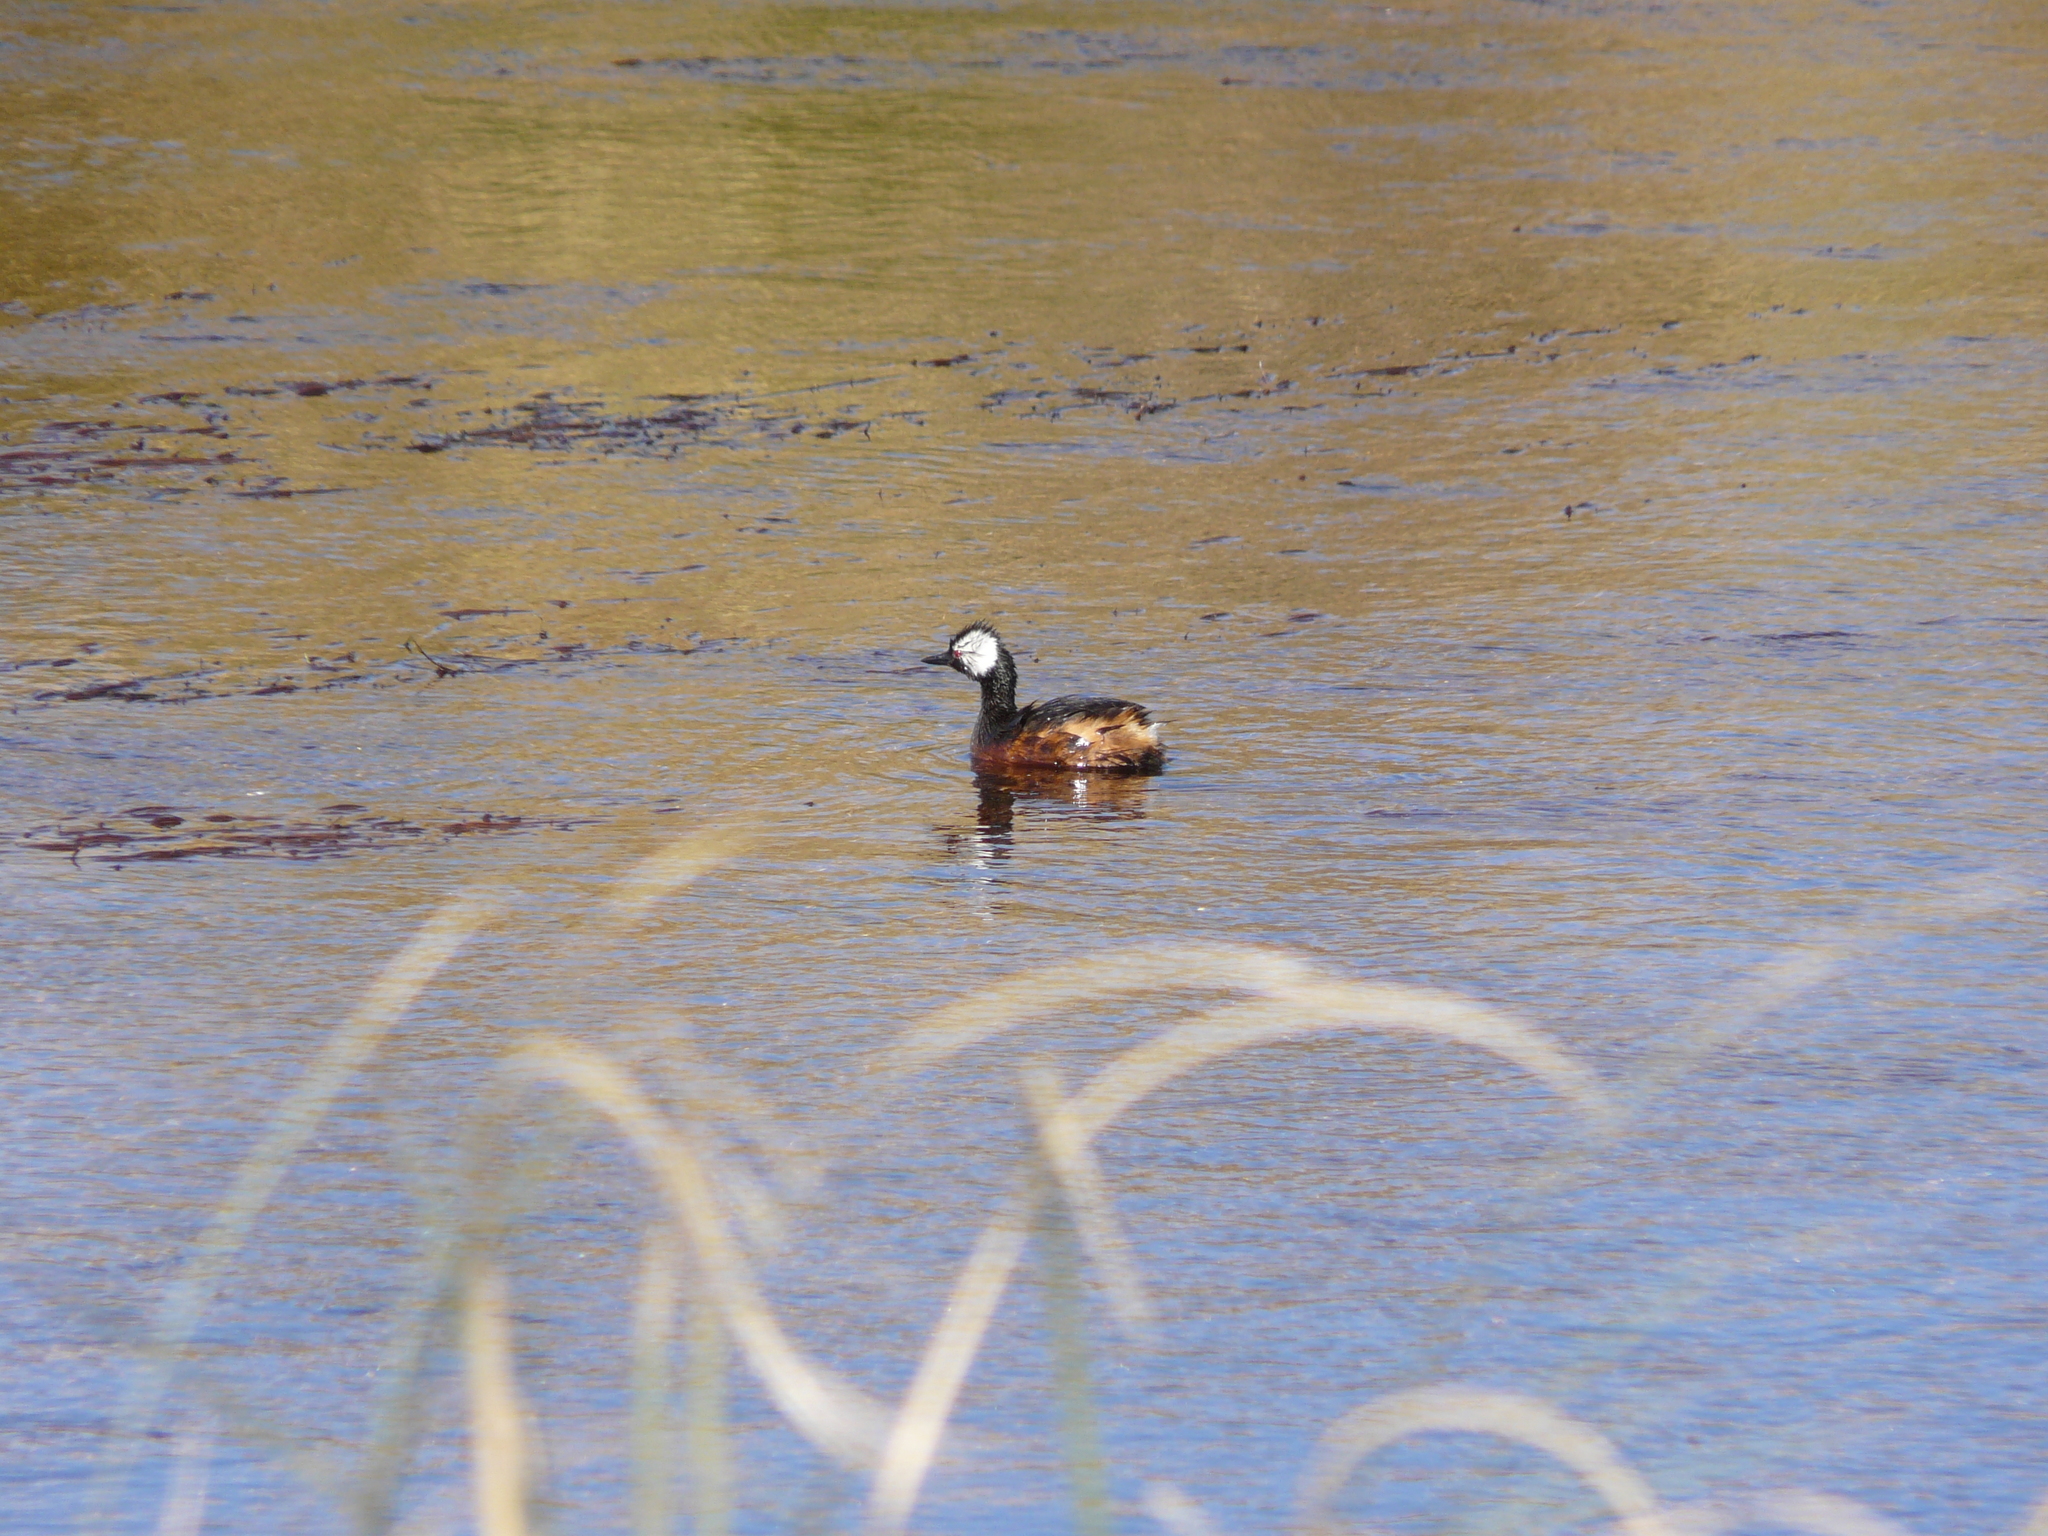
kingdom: Animalia
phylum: Chordata
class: Aves
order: Podicipediformes
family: Podicipedidae
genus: Rollandia
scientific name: Rollandia rolland
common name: White-tufted grebe
